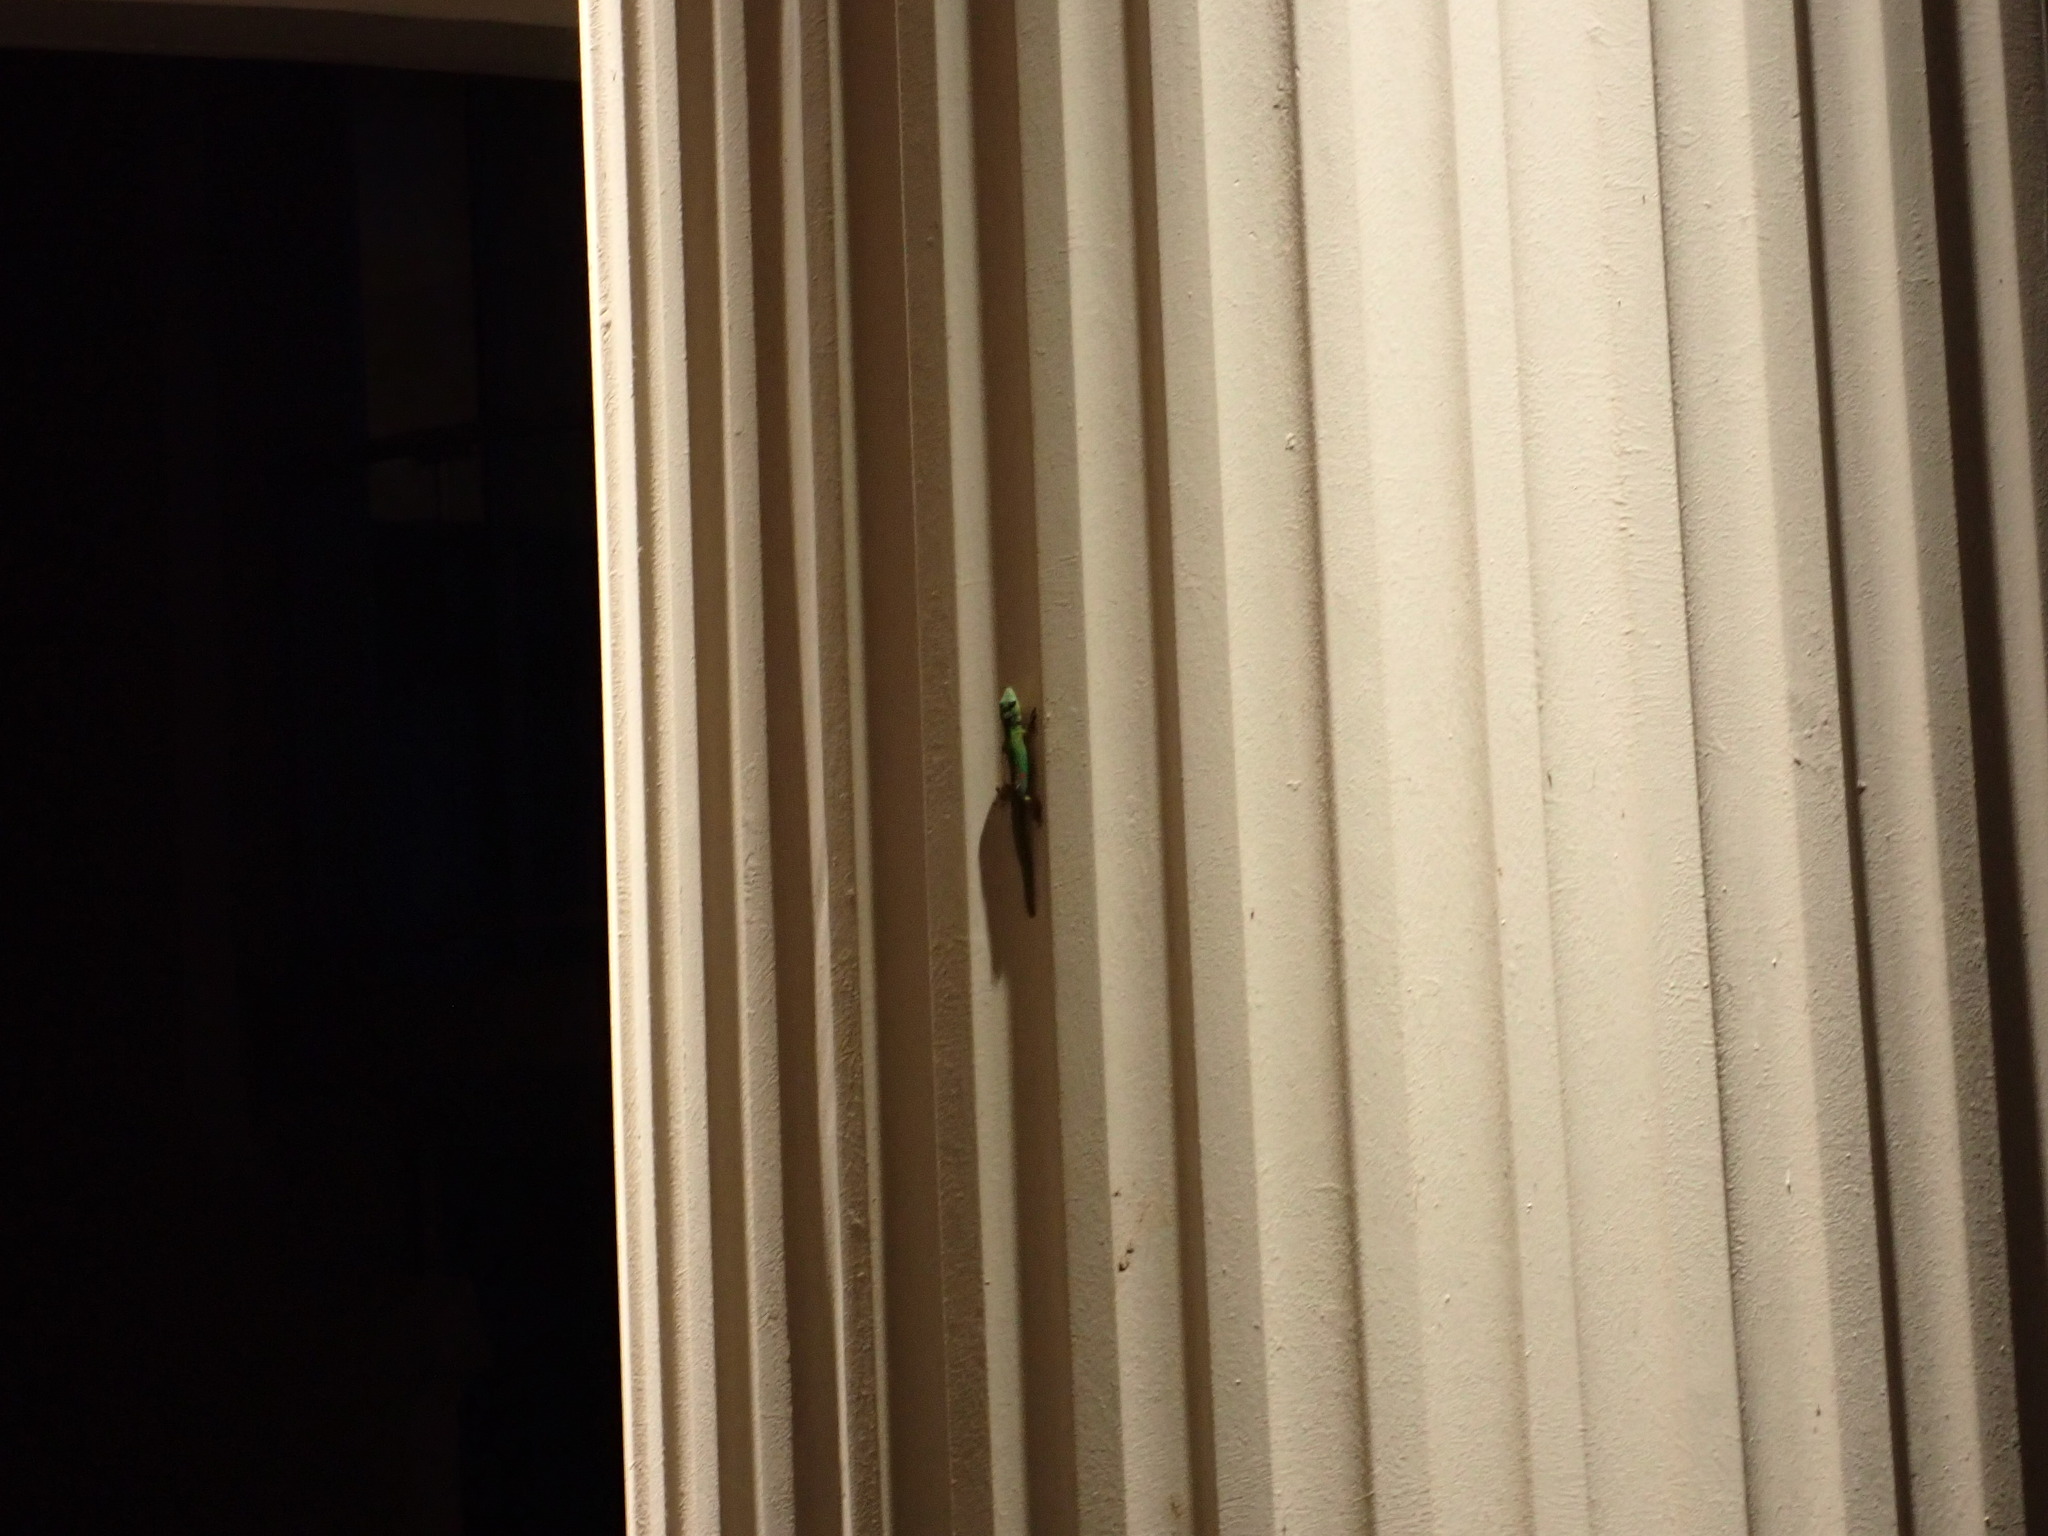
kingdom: Animalia
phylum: Chordata
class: Squamata
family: Gekkonidae
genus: Phelsuma
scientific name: Phelsuma laticauda
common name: Gold dust day gecko
